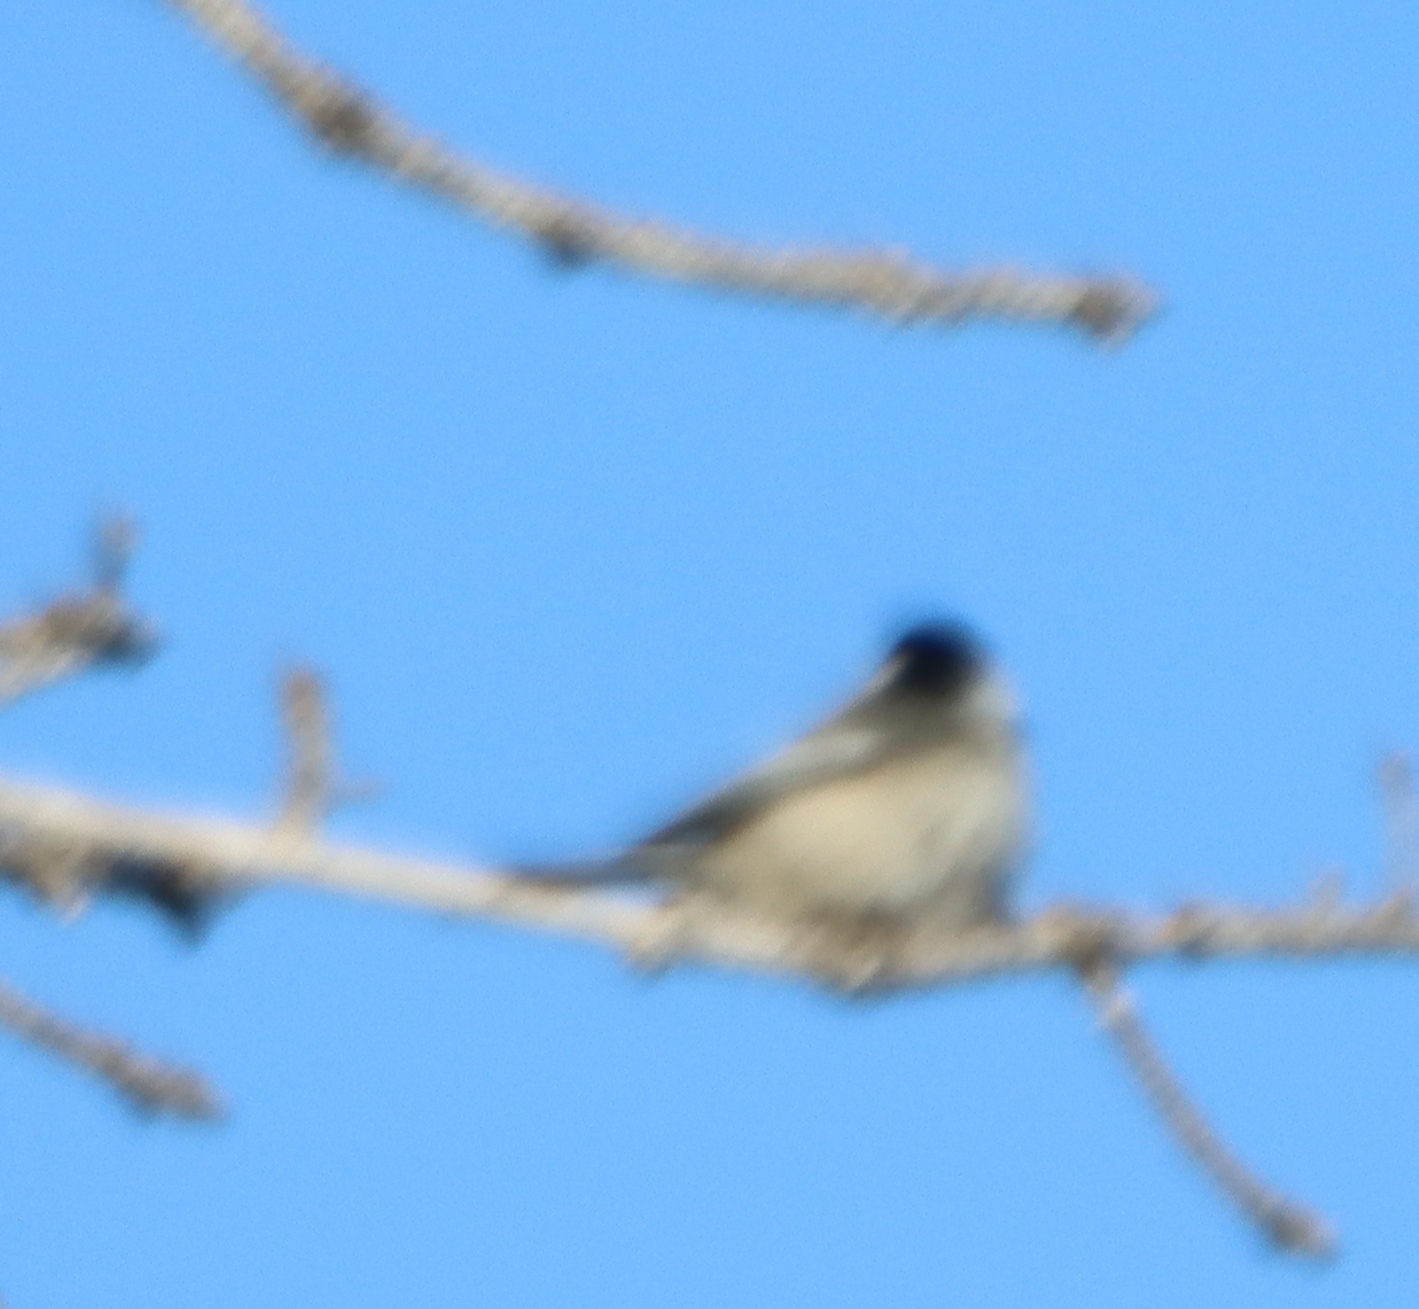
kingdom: Animalia
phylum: Chordata
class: Aves
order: Passeriformes
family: Paridae
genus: Poecile
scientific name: Poecile atricapillus
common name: Black-capped chickadee
